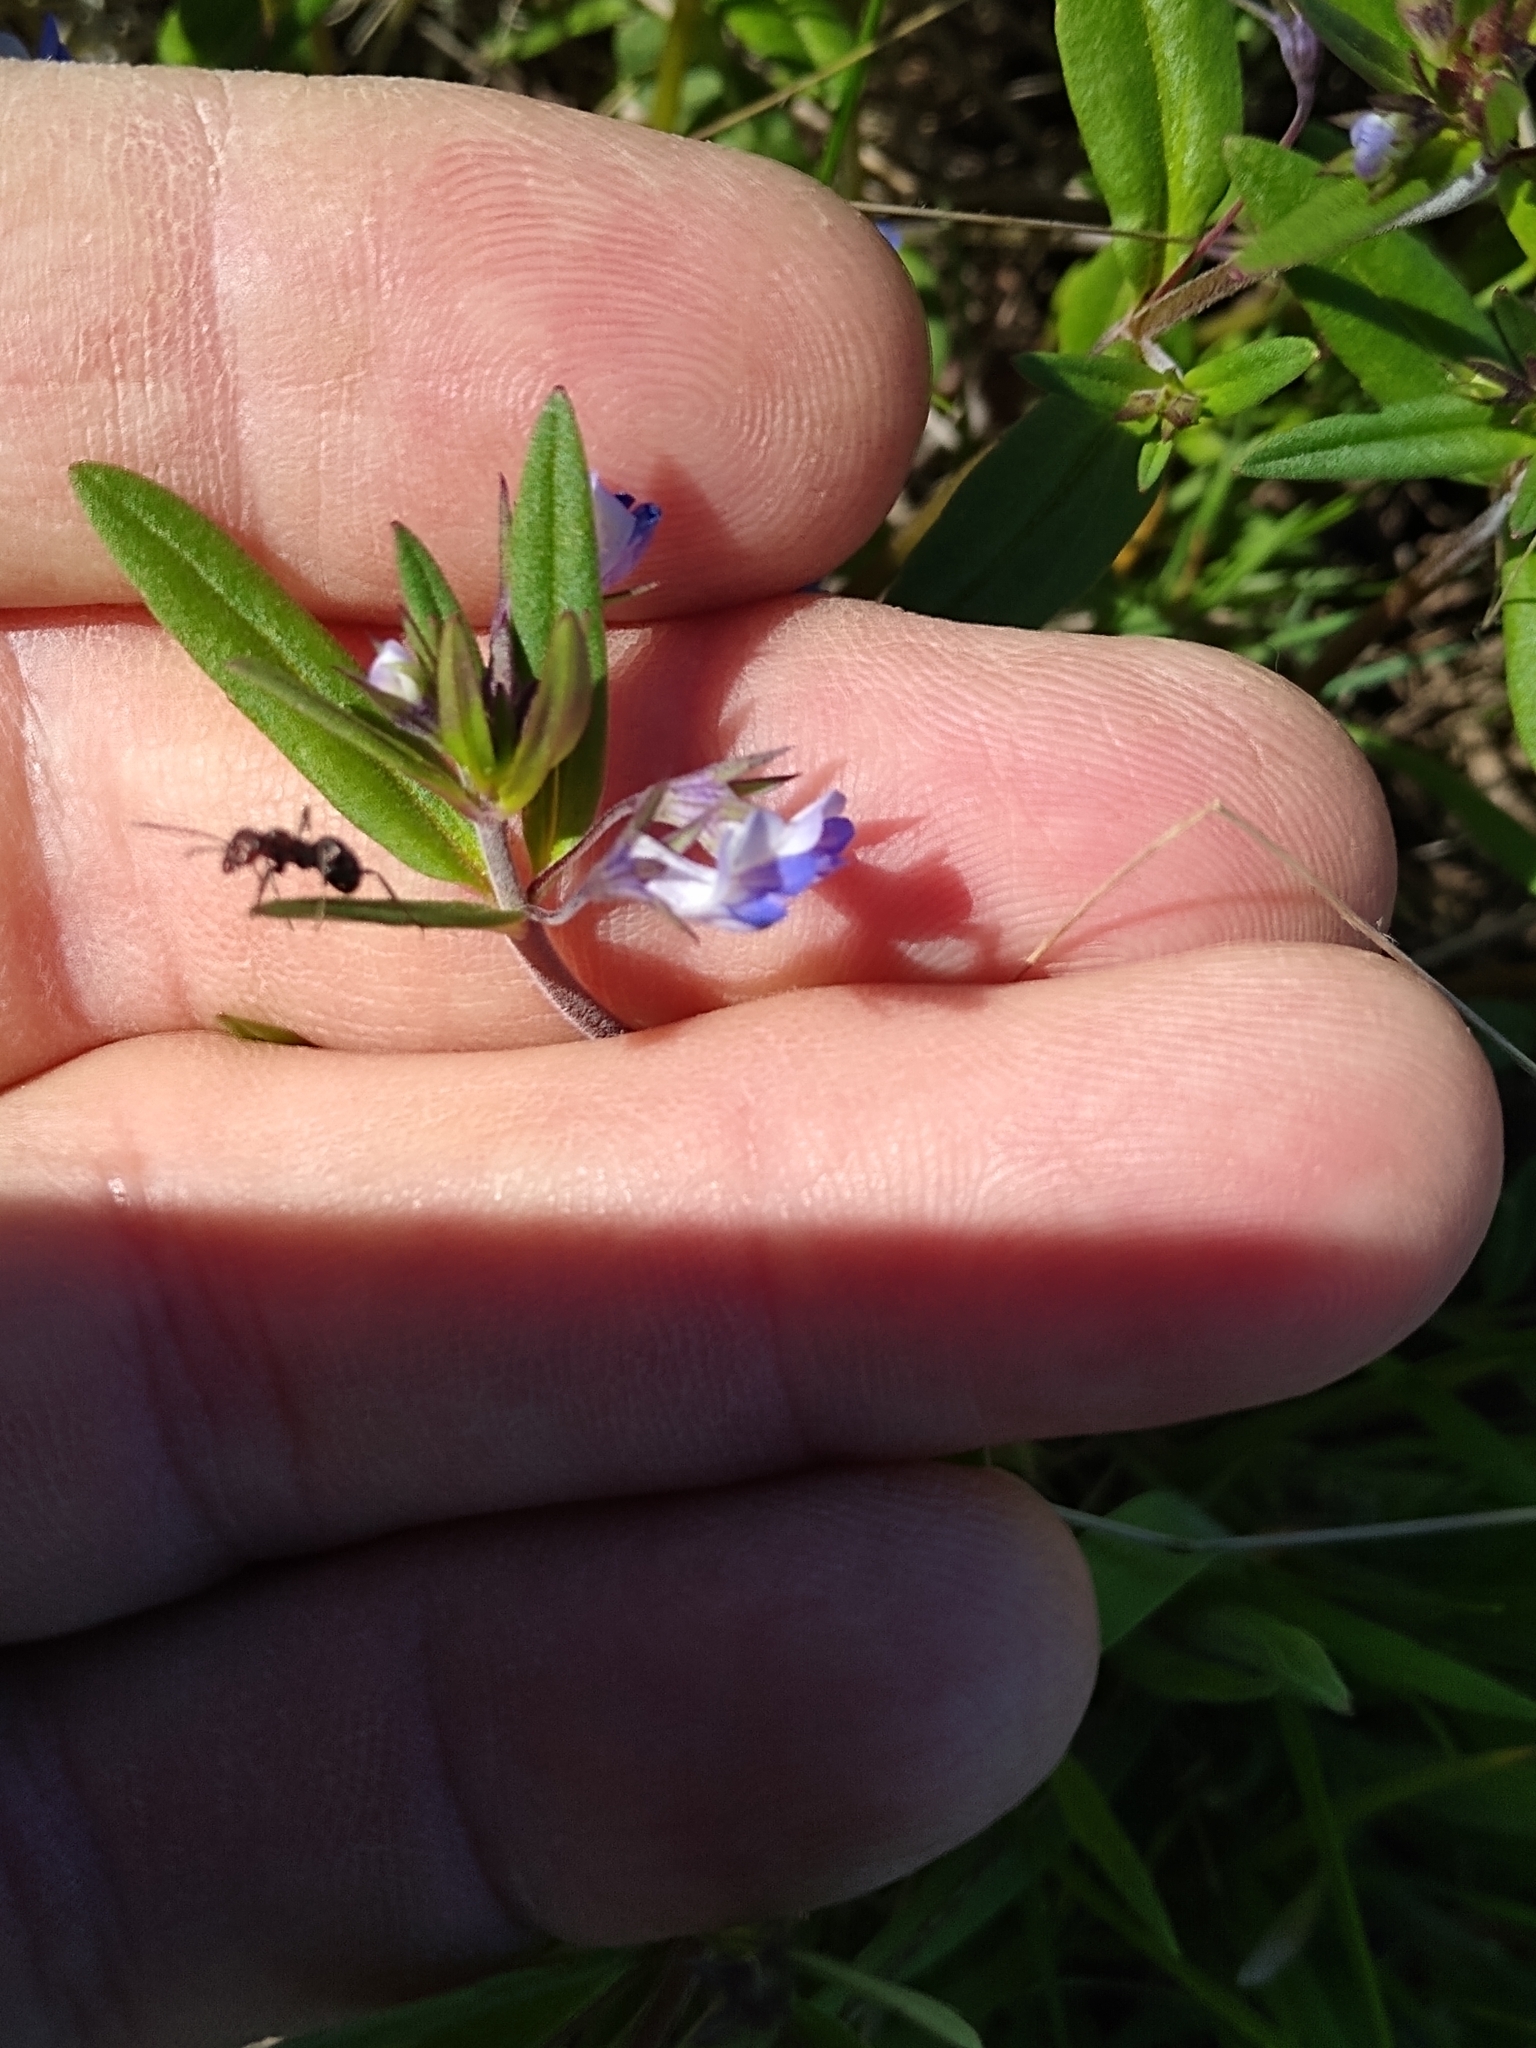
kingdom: Plantae
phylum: Tracheophyta
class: Magnoliopsida
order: Lamiales
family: Plantaginaceae
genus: Collinsia
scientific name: Collinsia parviflora
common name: Blue-lips
